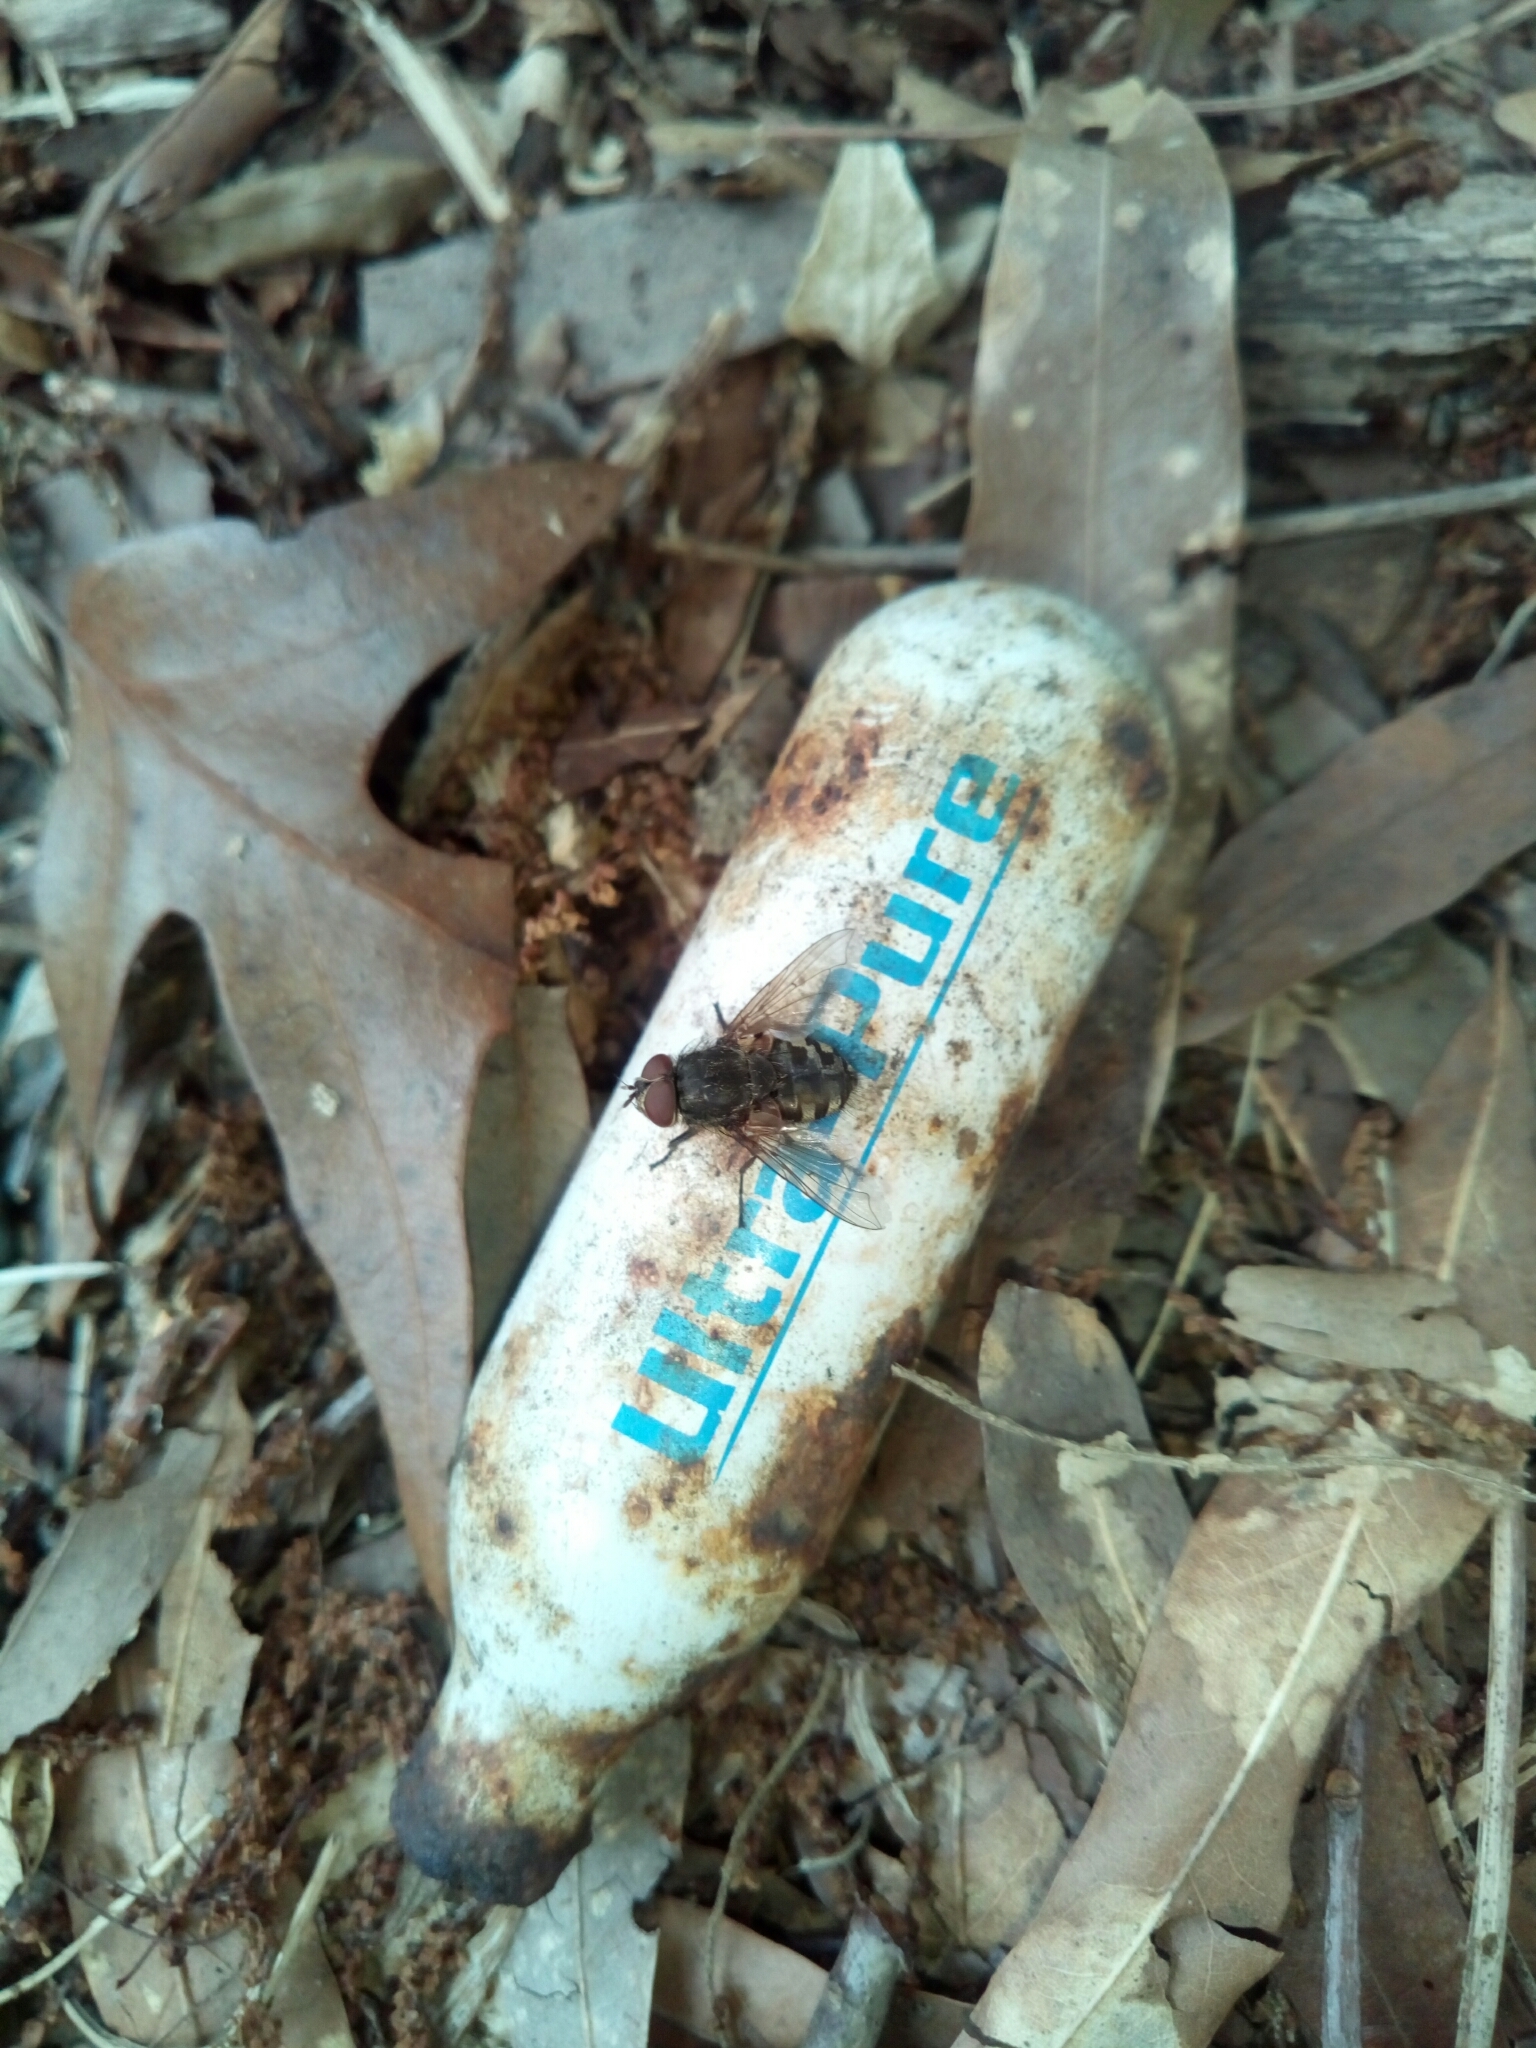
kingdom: Animalia
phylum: Arthropoda
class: Insecta
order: Diptera
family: Polleniidae
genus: Pollenia
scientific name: Pollenia
